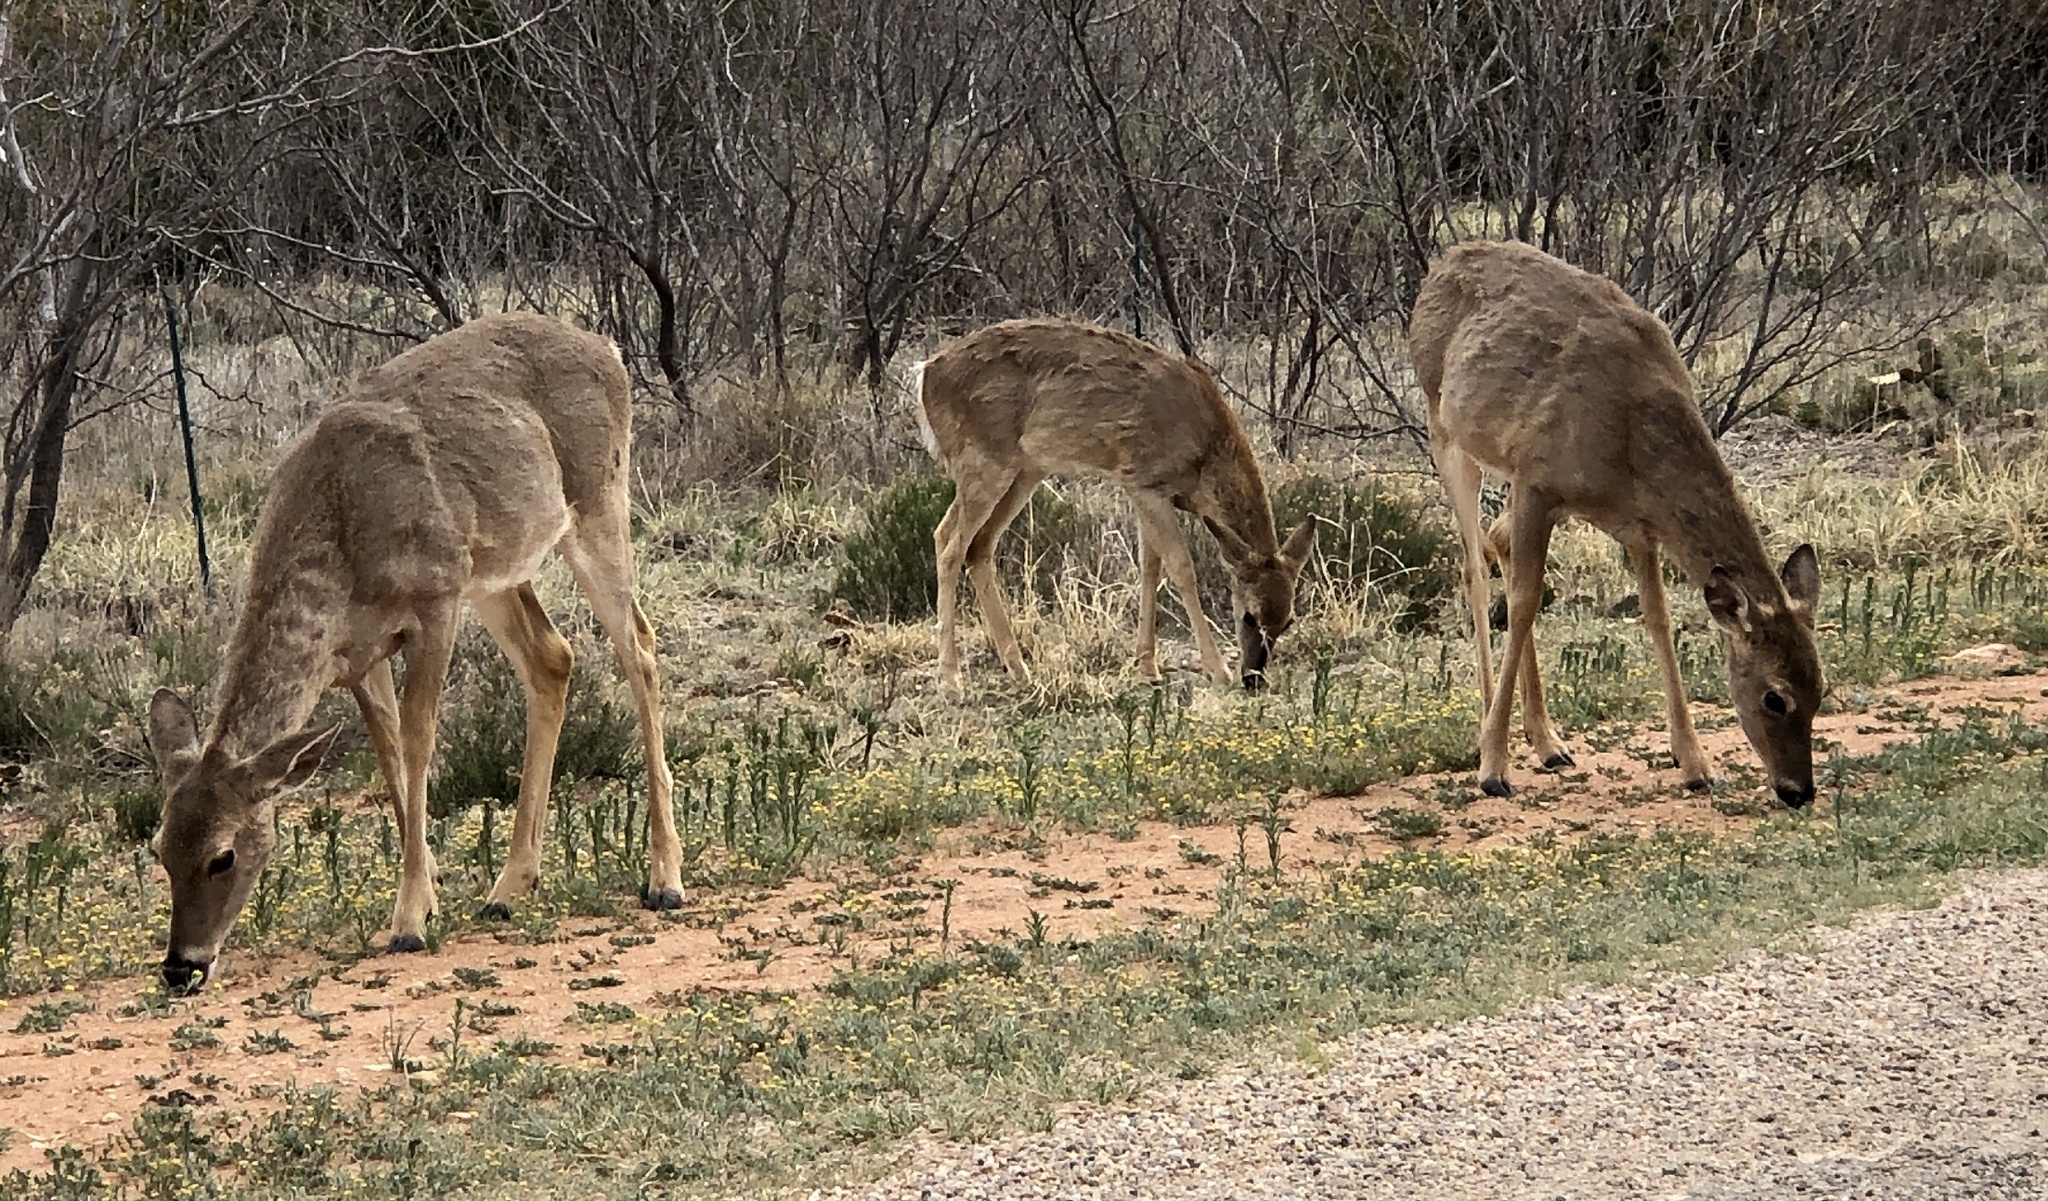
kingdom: Animalia
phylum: Chordata
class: Mammalia
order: Artiodactyla
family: Cervidae
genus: Odocoileus
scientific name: Odocoileus virginianus
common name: White-tailed deer
